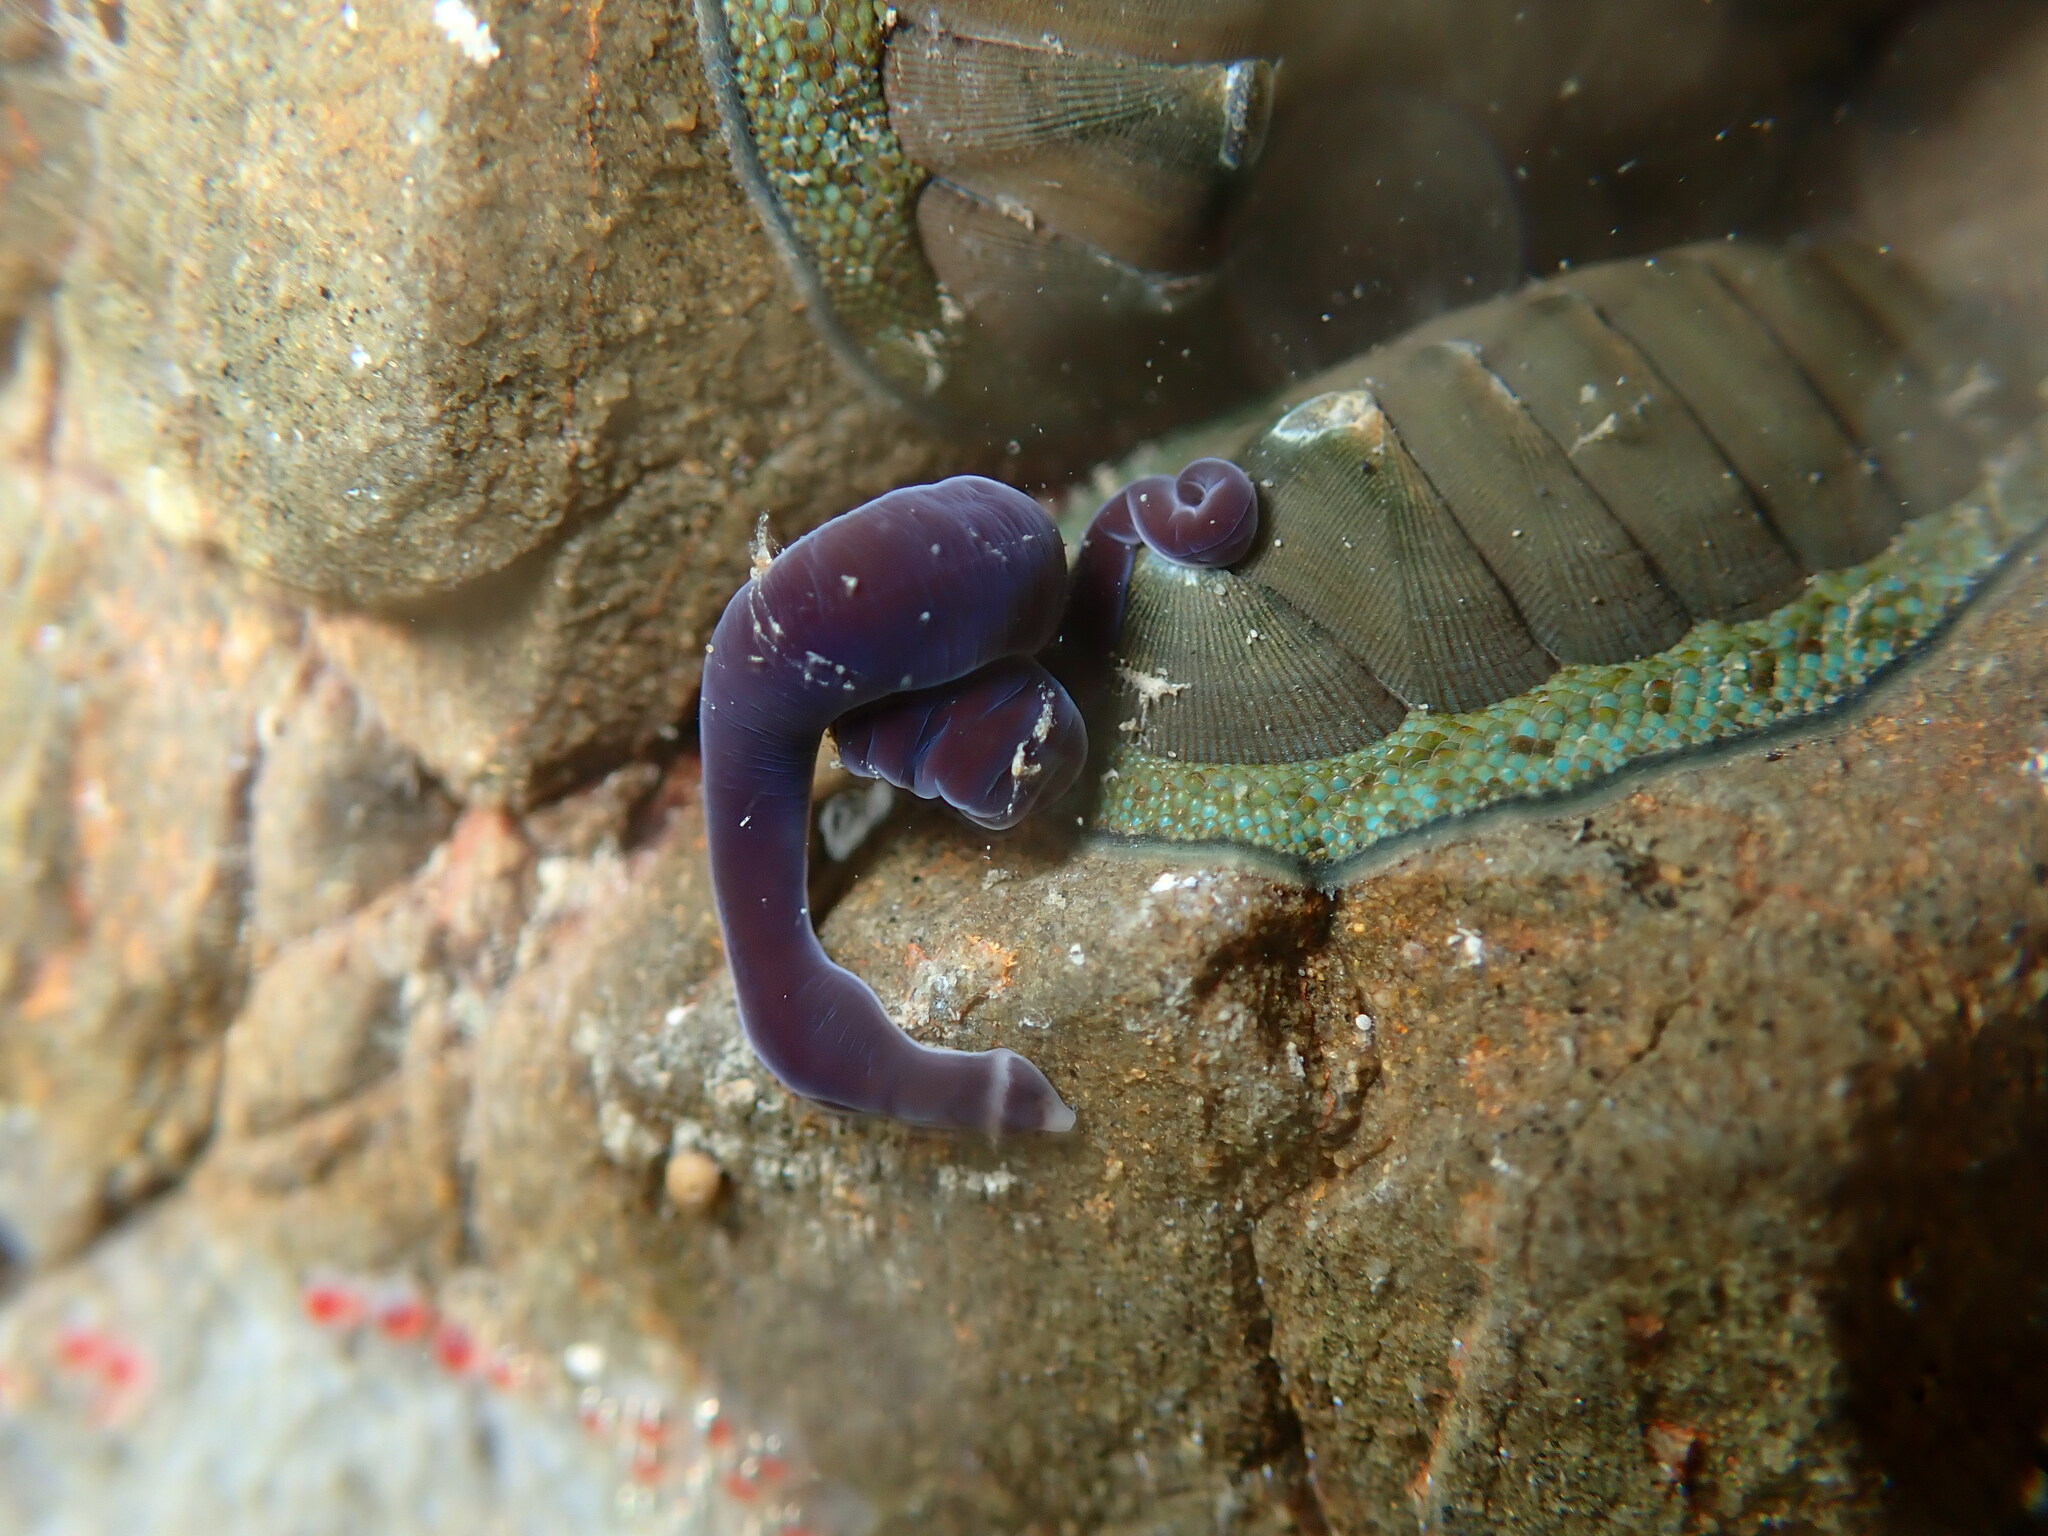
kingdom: Animalia
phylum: Nemertea
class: Hoplonemertea
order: Monostilifera
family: Neesiidae
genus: Noteonemertes
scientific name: Noteonemertes novaezealandiae
